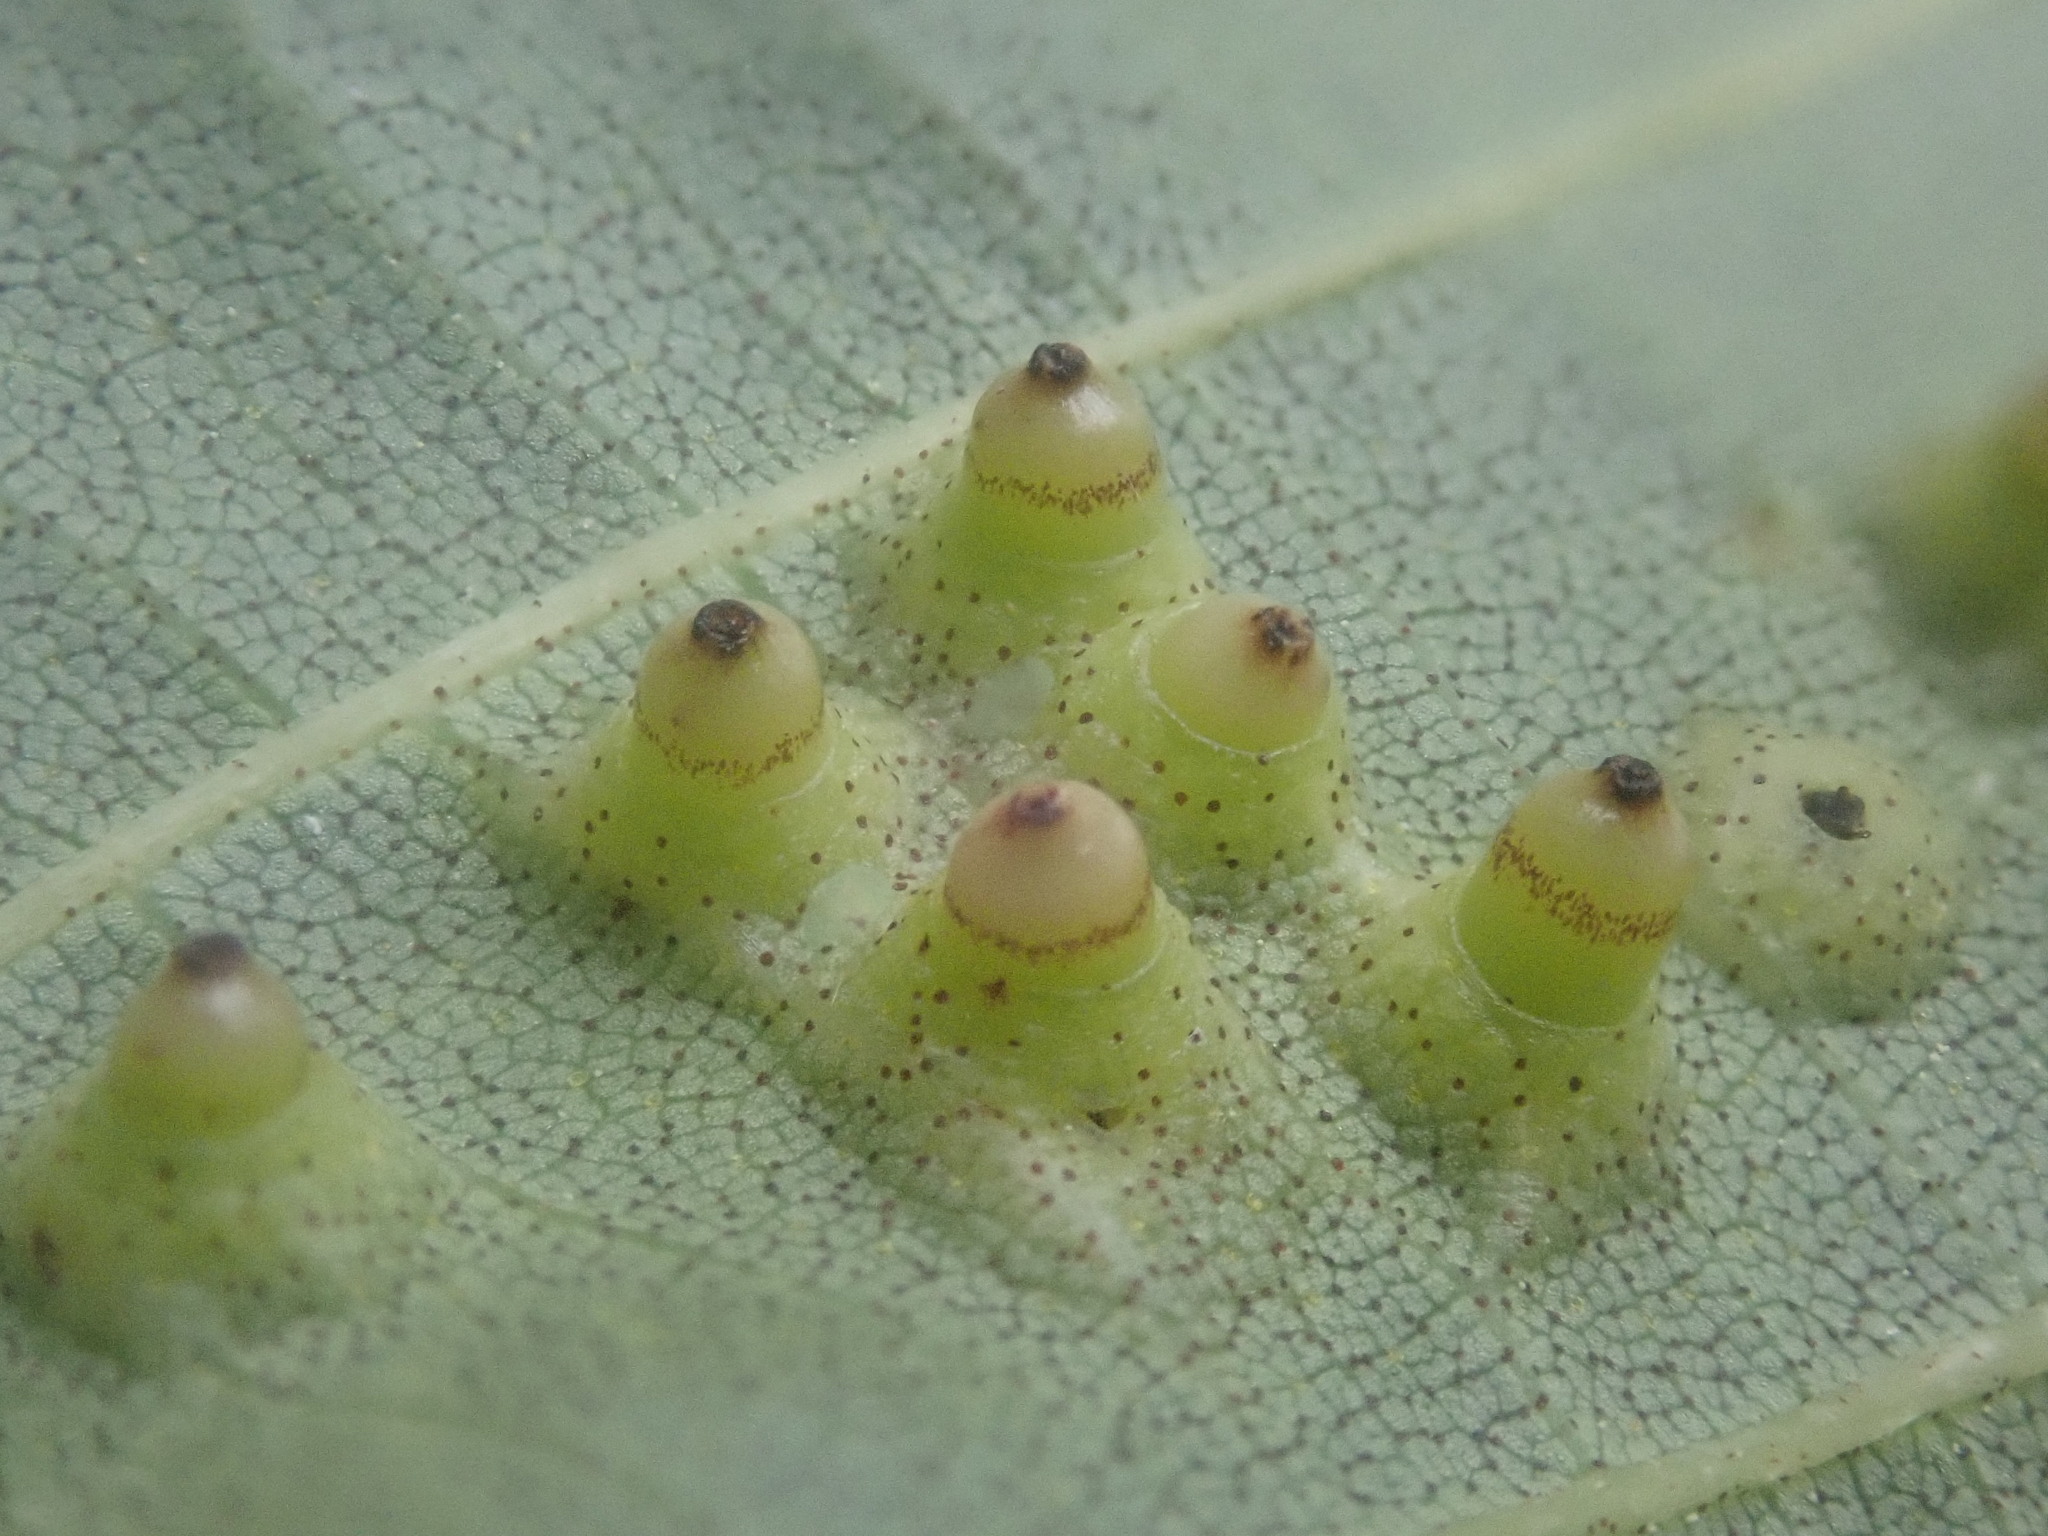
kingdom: Animalia
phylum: Arthropoda
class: Insecta
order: Diptera
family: Cecidomyiidae
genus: Caryomyia
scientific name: Caryomyia tubicola
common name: Hickory bullet gall midge
